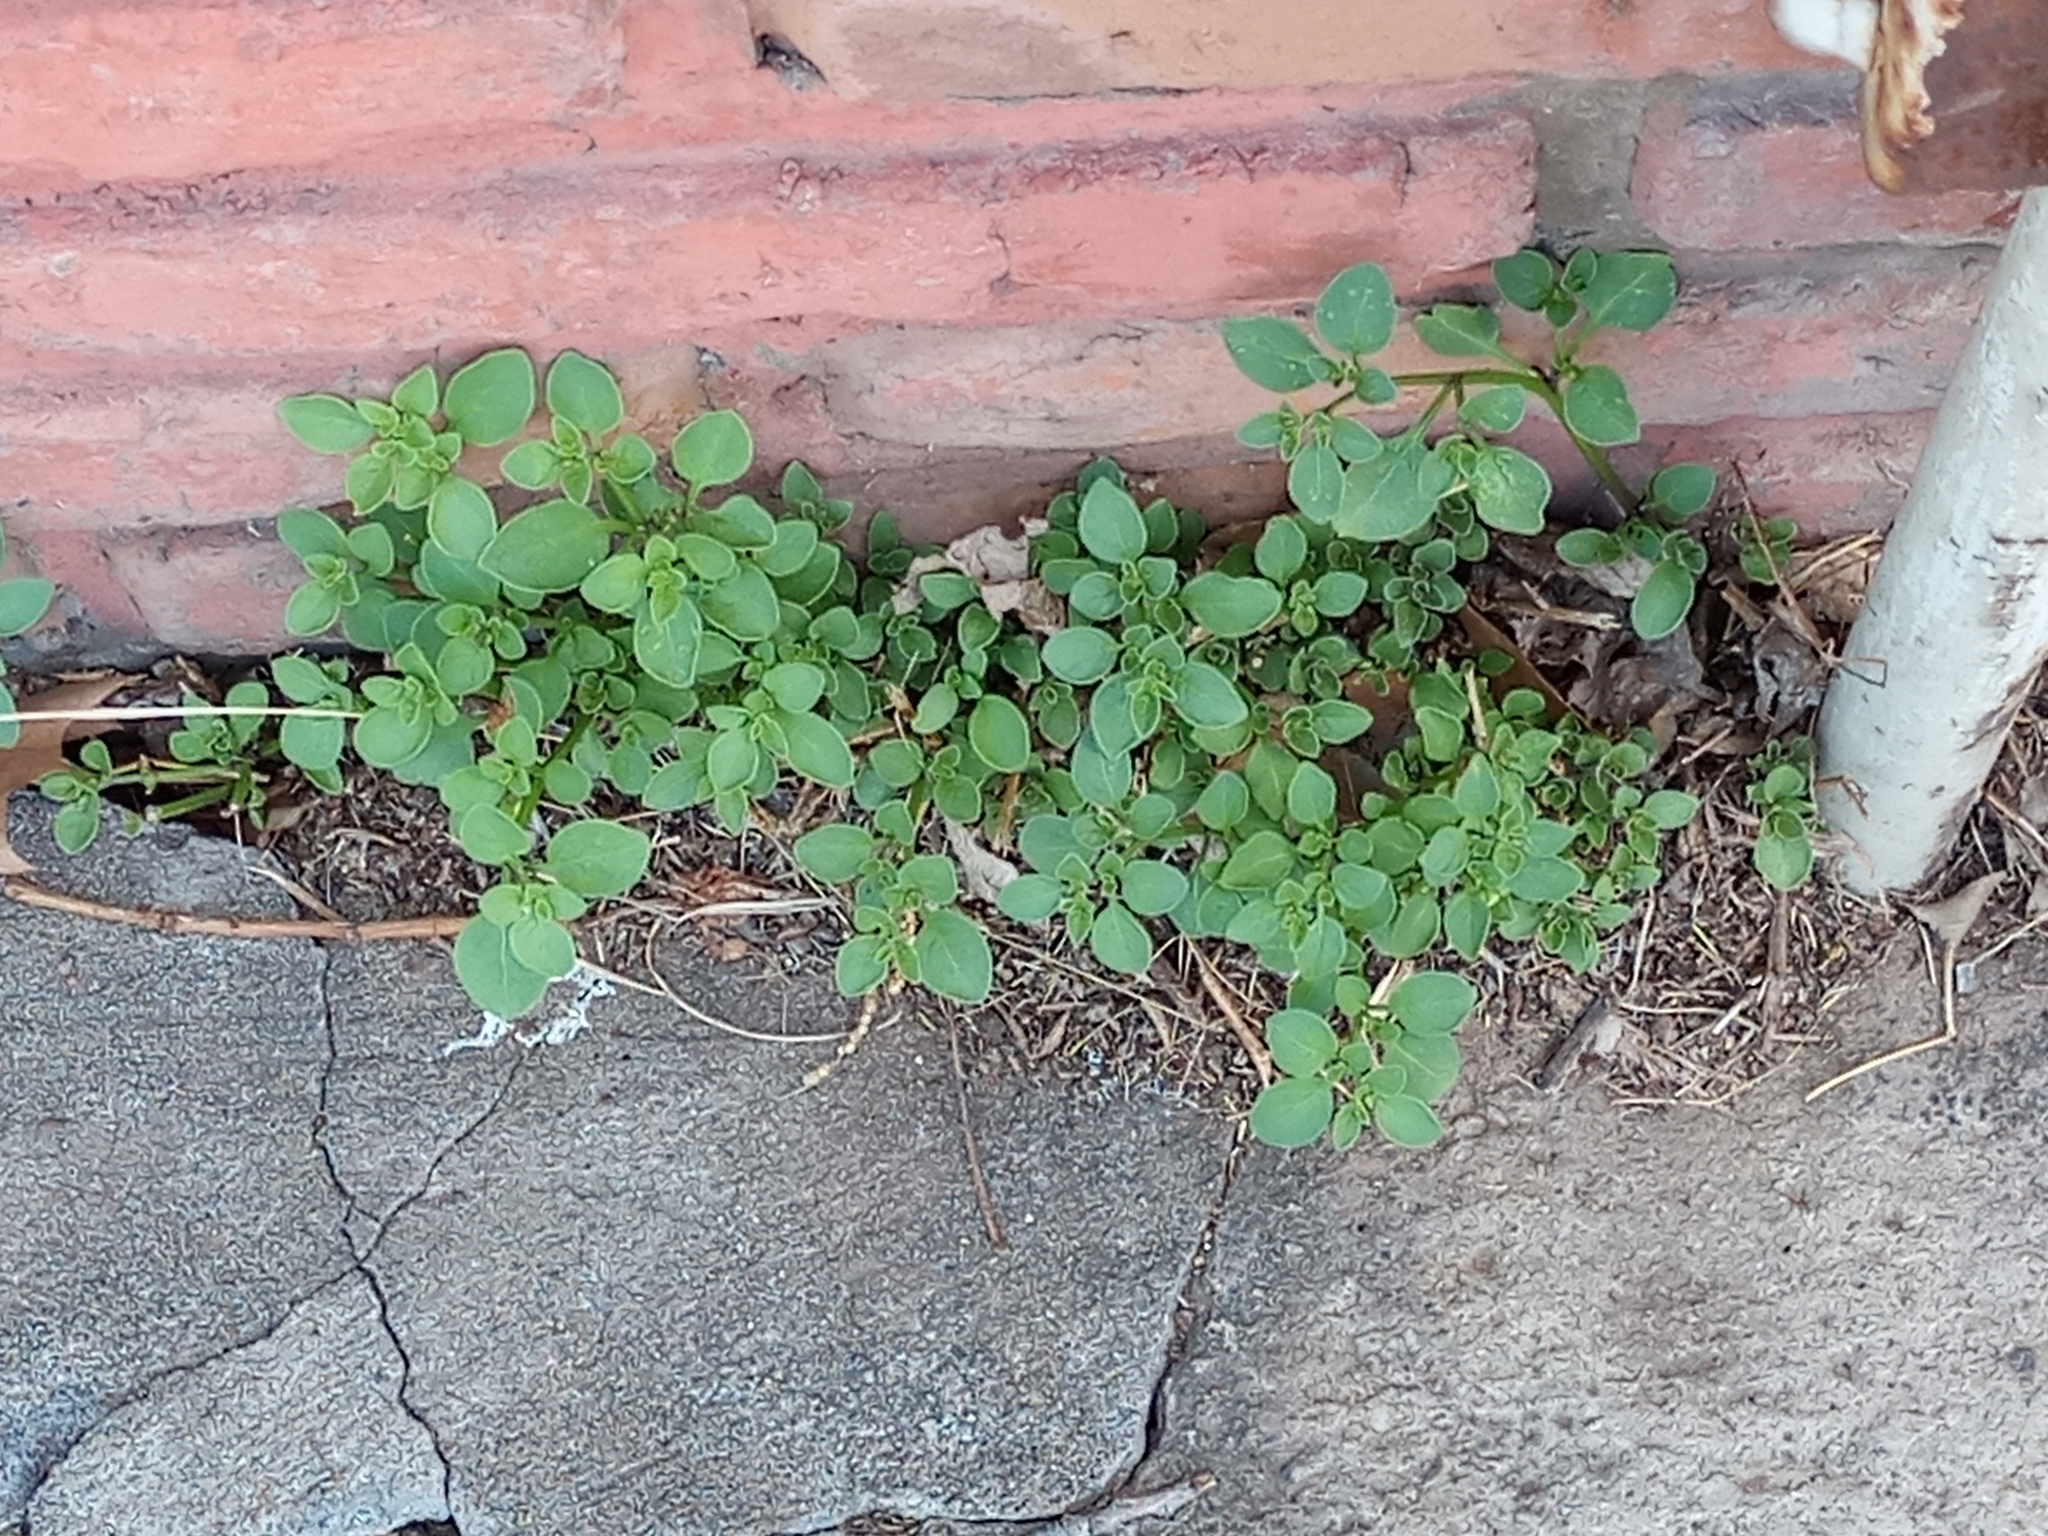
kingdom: Plantae
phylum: Tracheophyta
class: Magnoliopsida
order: Solanales
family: Solanaceae
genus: Salpichroa
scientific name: Salpichroa origanifolia
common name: Lily-of-the-valley-vine
